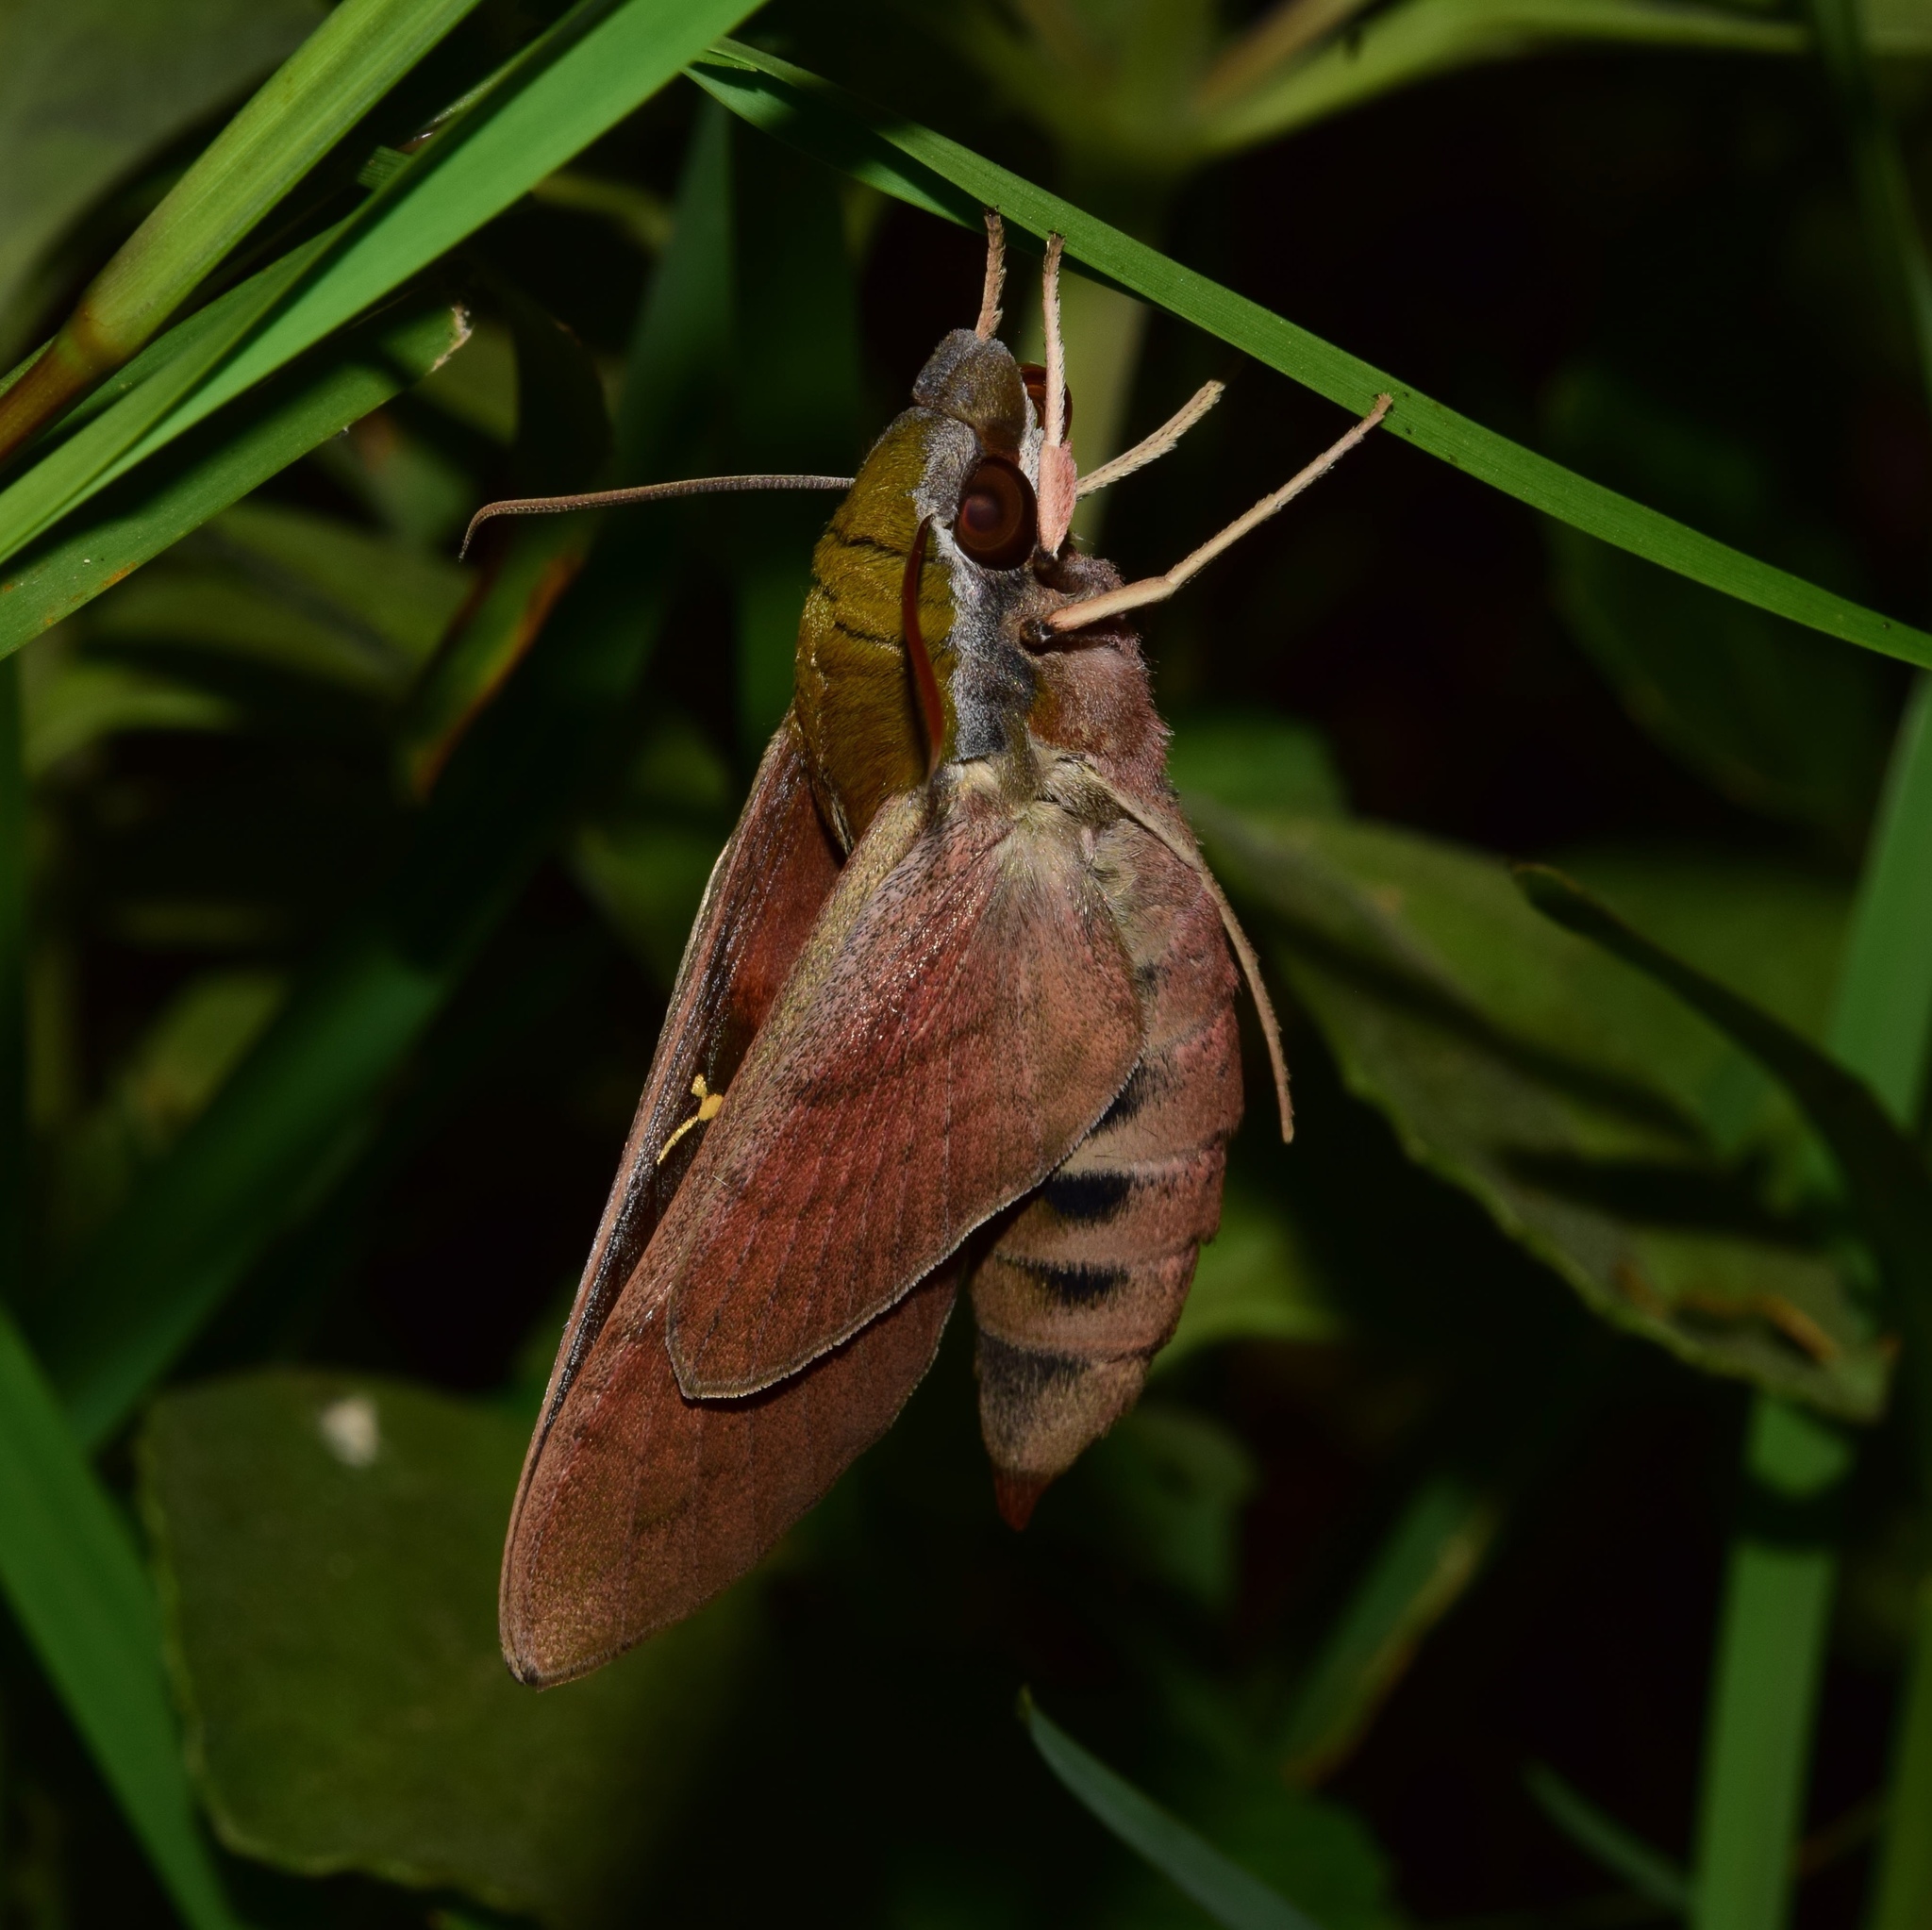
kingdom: Animalia
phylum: Arthropoda
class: Insecta
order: Lepidoptera
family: Sphingidae
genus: Nephele
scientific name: Nephele vau
